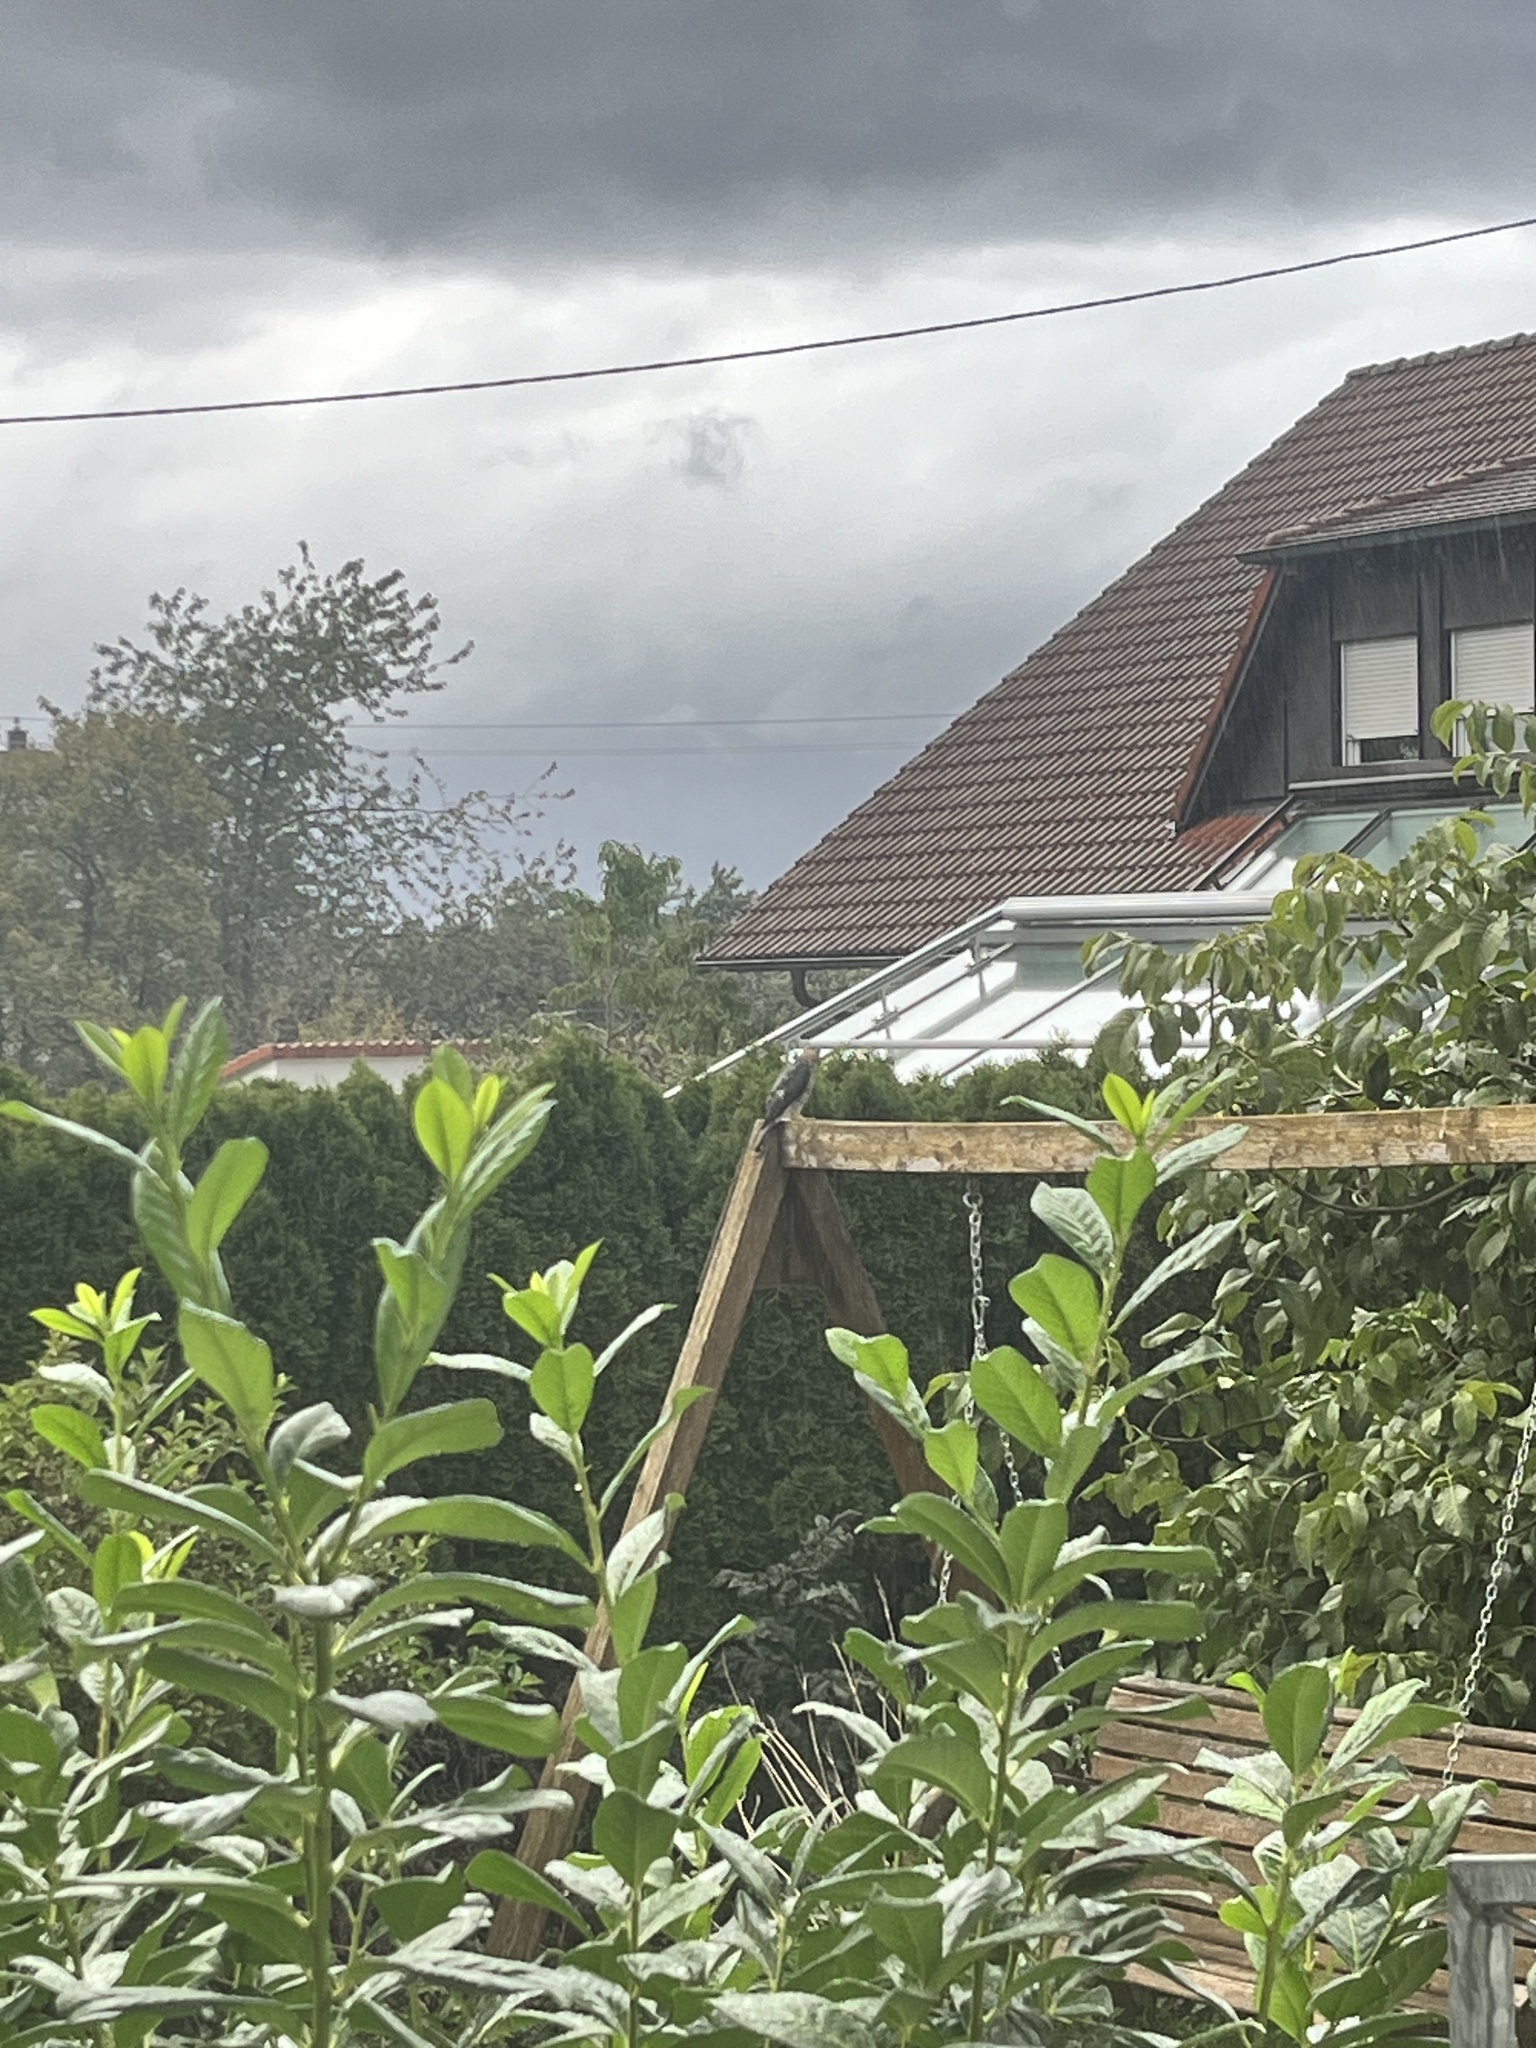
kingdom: Animalia
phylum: Chordata
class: Aves
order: Accipitriformes
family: Accipitridae
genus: Accipiter
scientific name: Accipiter nisus
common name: Eurasian sparrowhawk
